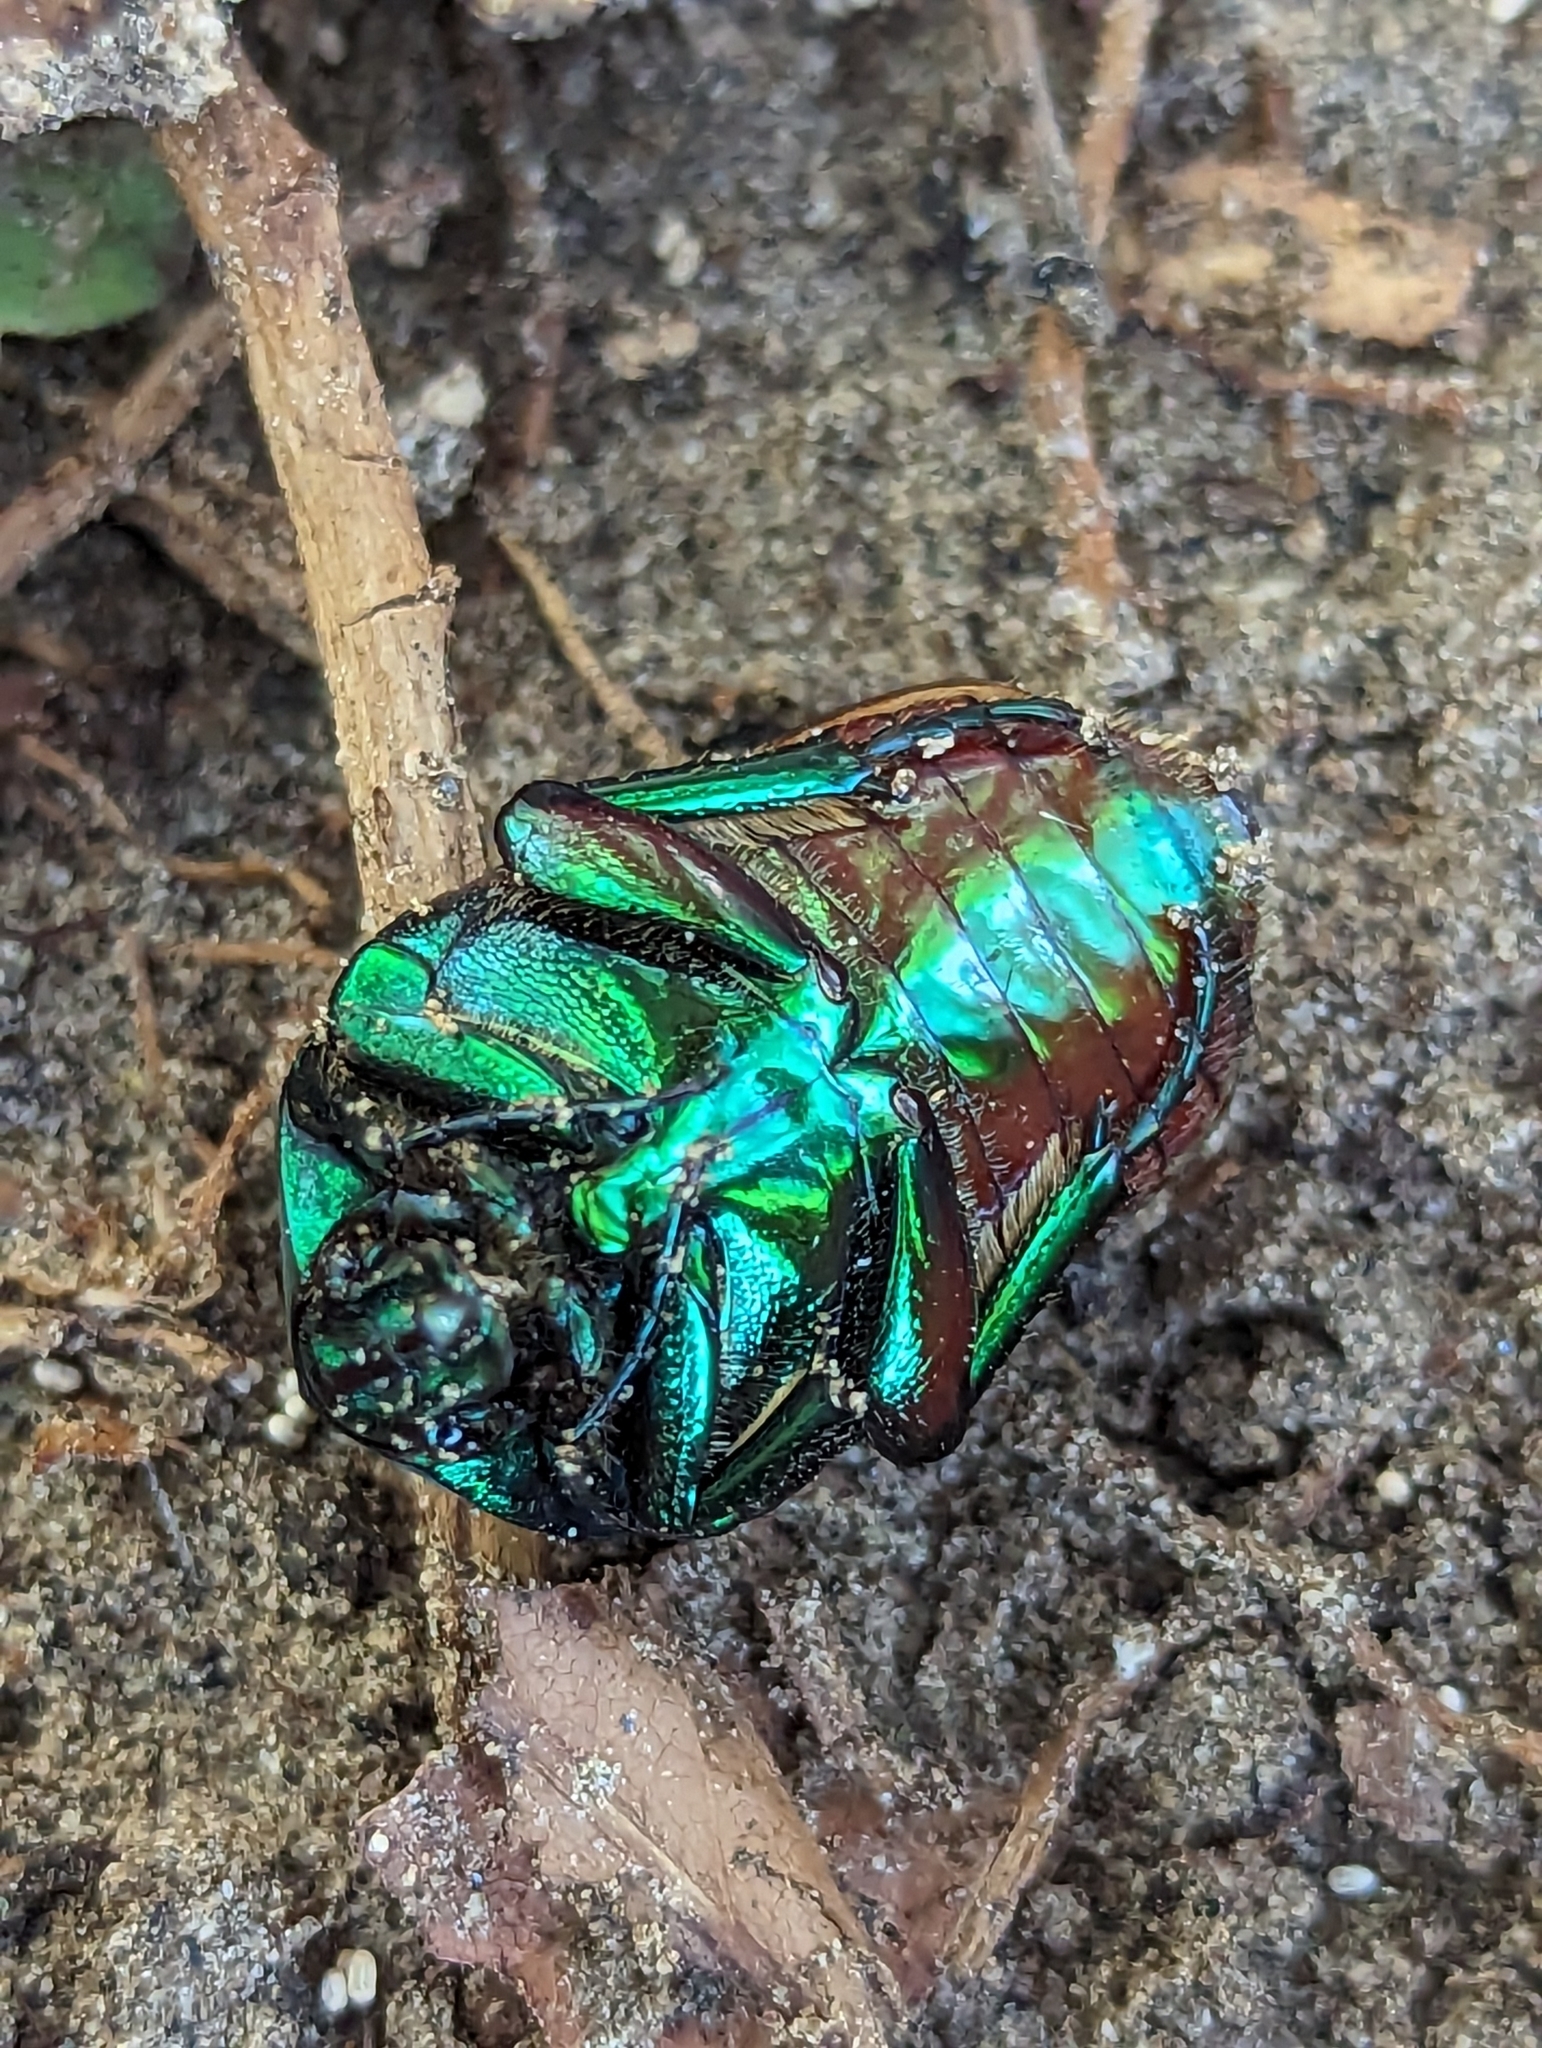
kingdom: Animalia
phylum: Arthropoda
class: Insecta
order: Coleoptera
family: Scarabaeidae
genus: Cotinis
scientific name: Cotinis mutabilis
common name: Figeater beetle
